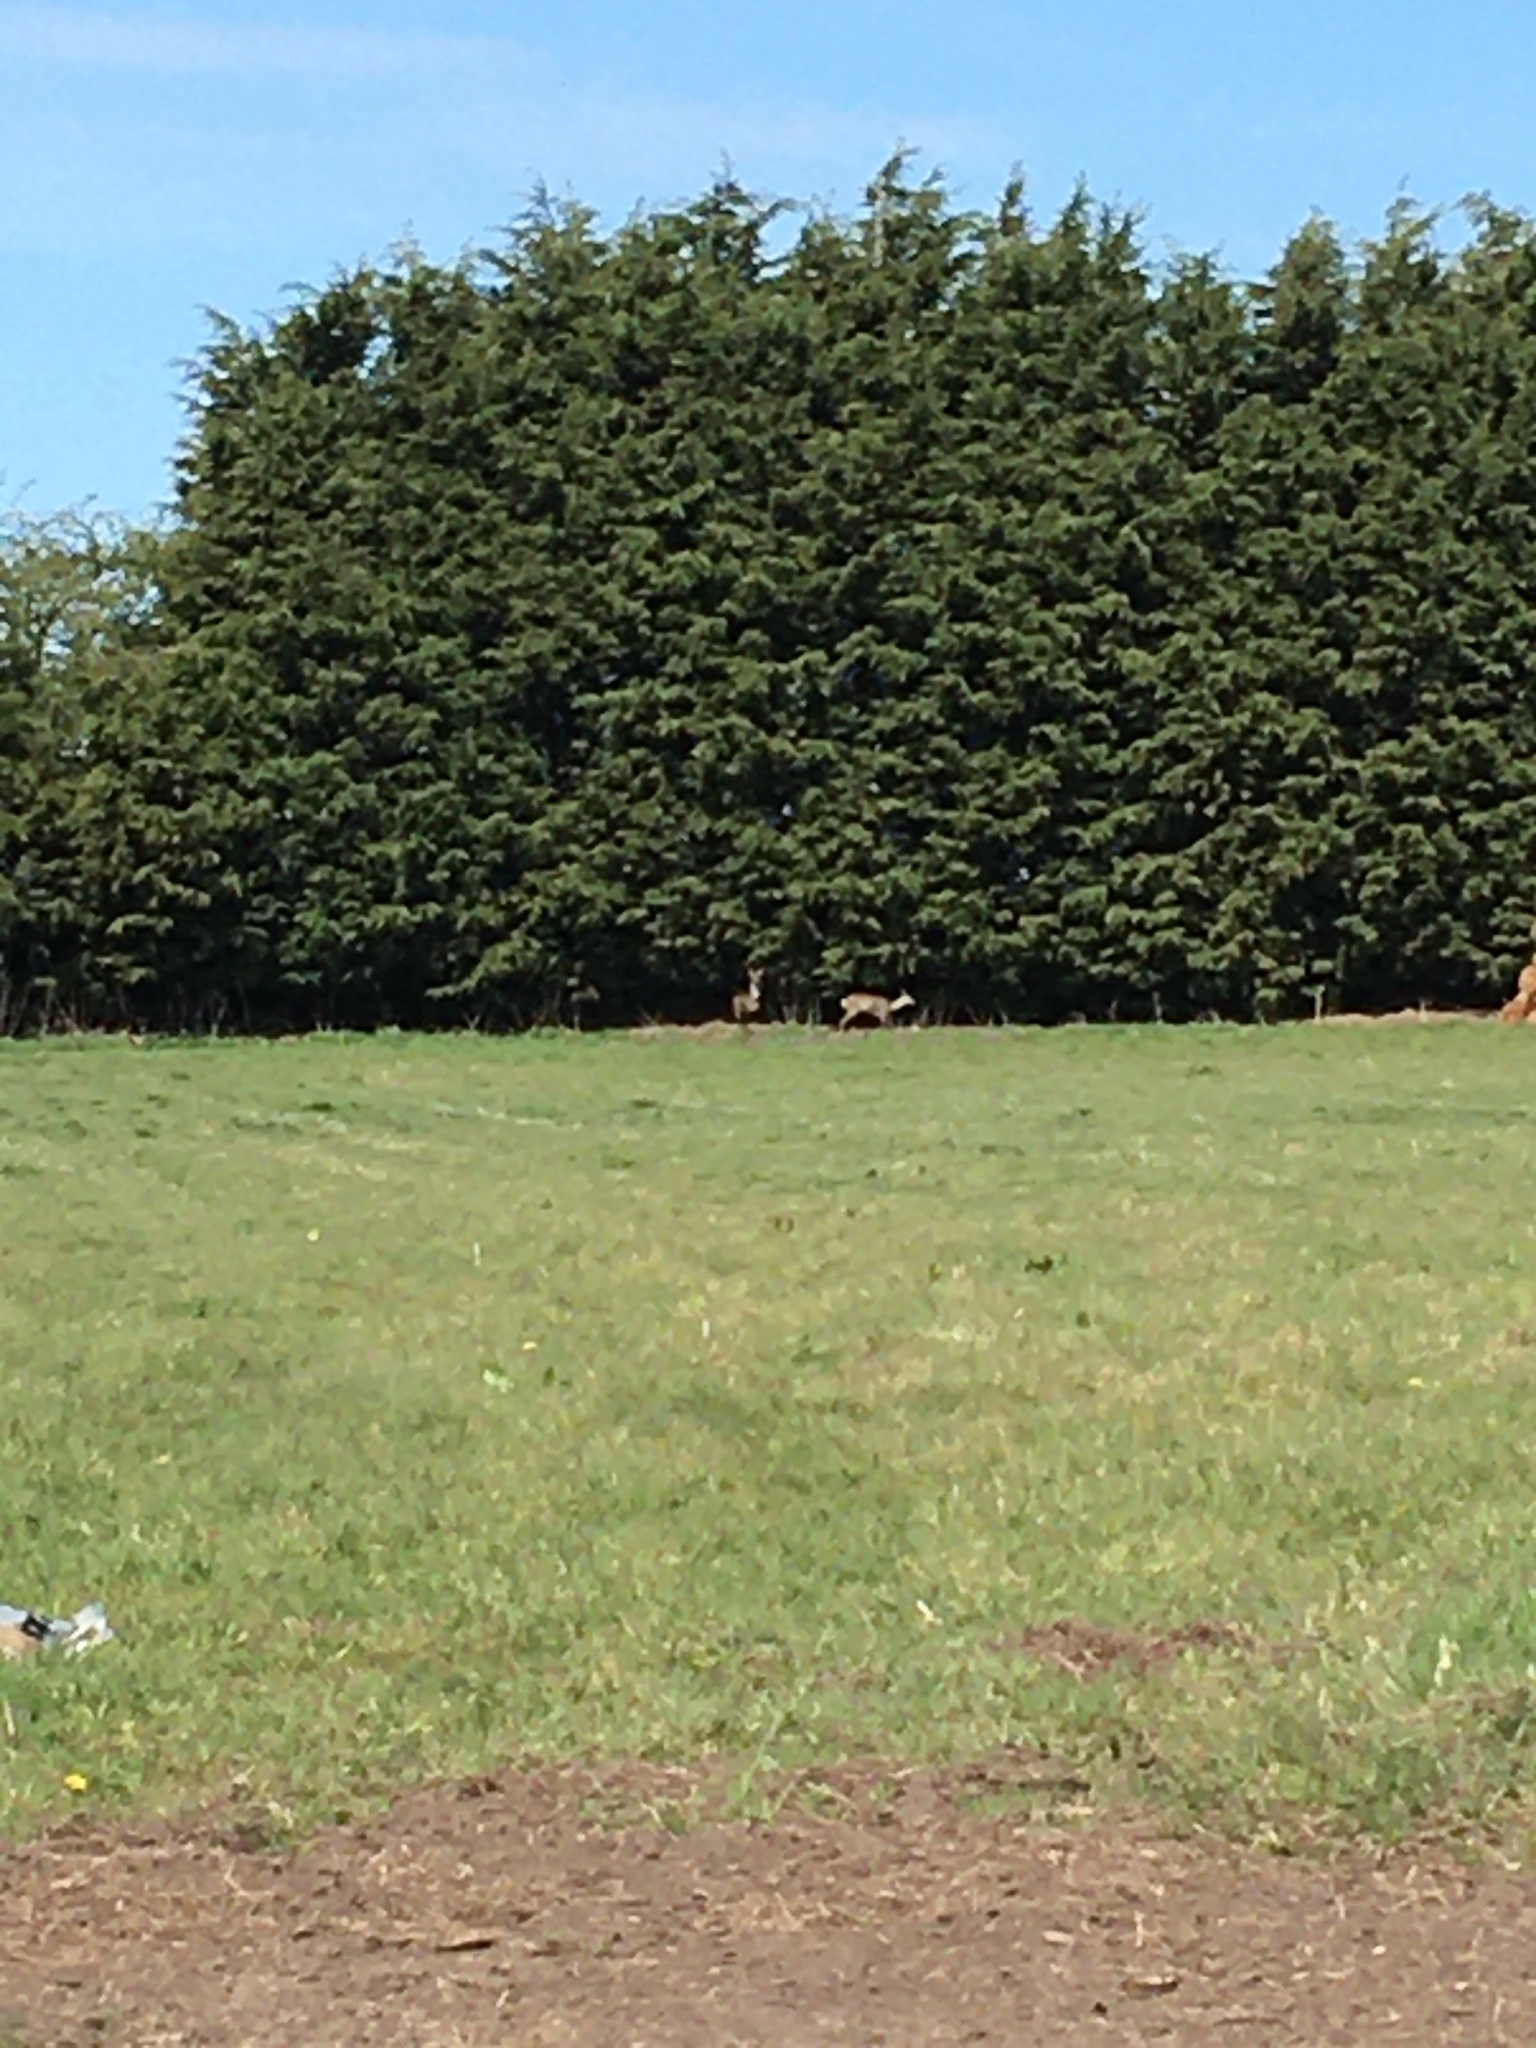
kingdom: Animalia
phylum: Chordata
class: Mammalia
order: Artiodactyla
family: Cervidae
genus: Capreolus
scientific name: Capreolus capreolus
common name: Western roe deer
